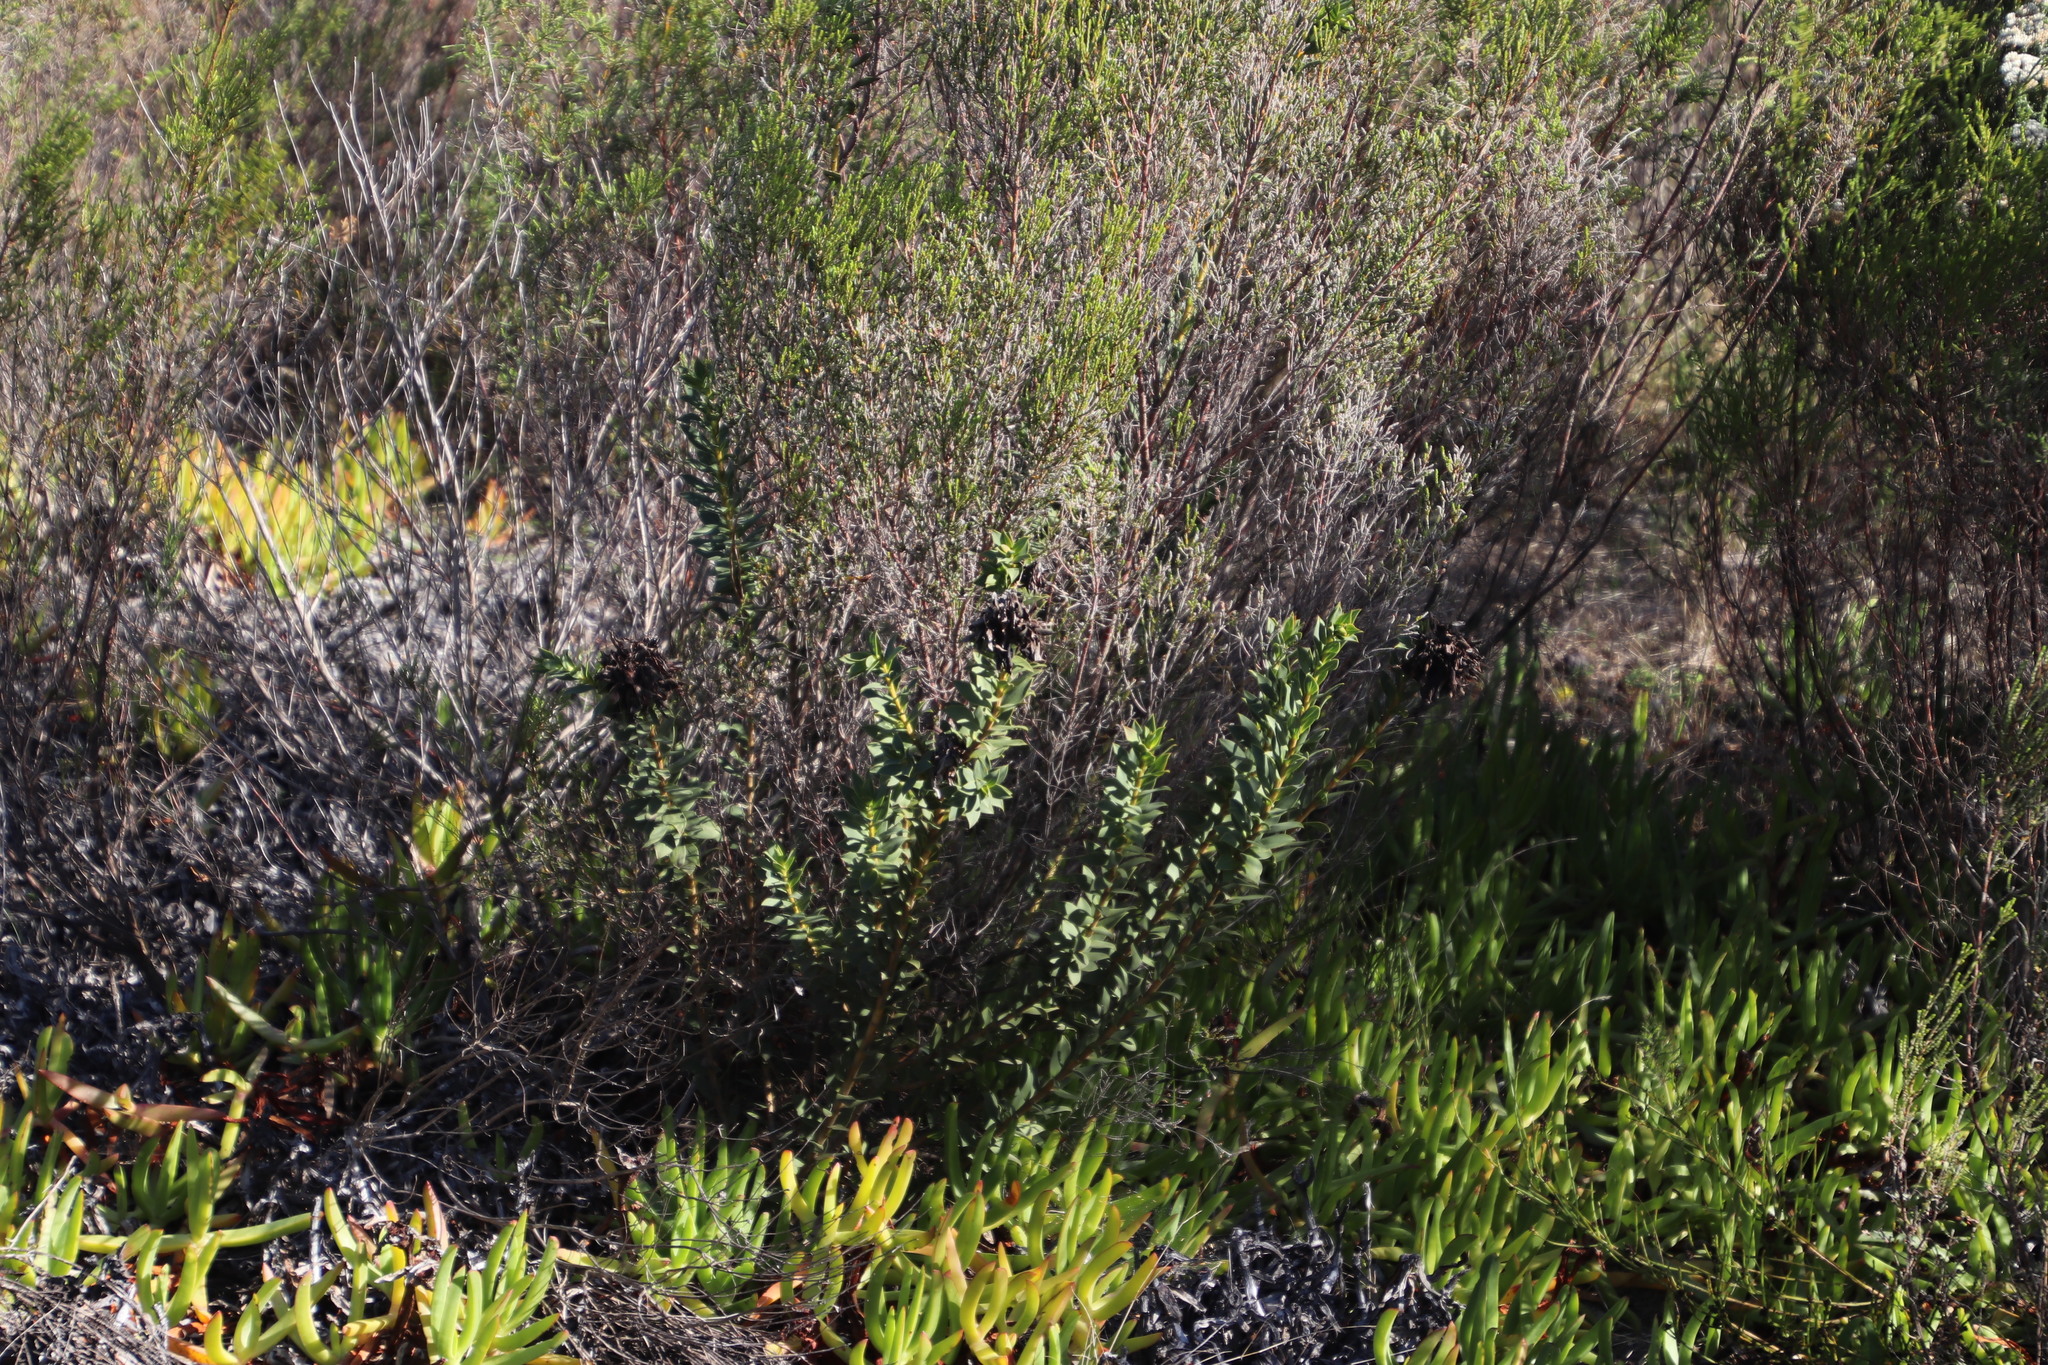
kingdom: Plantae
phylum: Tracheophyta
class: Magnoliopsida
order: Fabales
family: Fabaceae
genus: Liparia
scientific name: Liparia splendens
